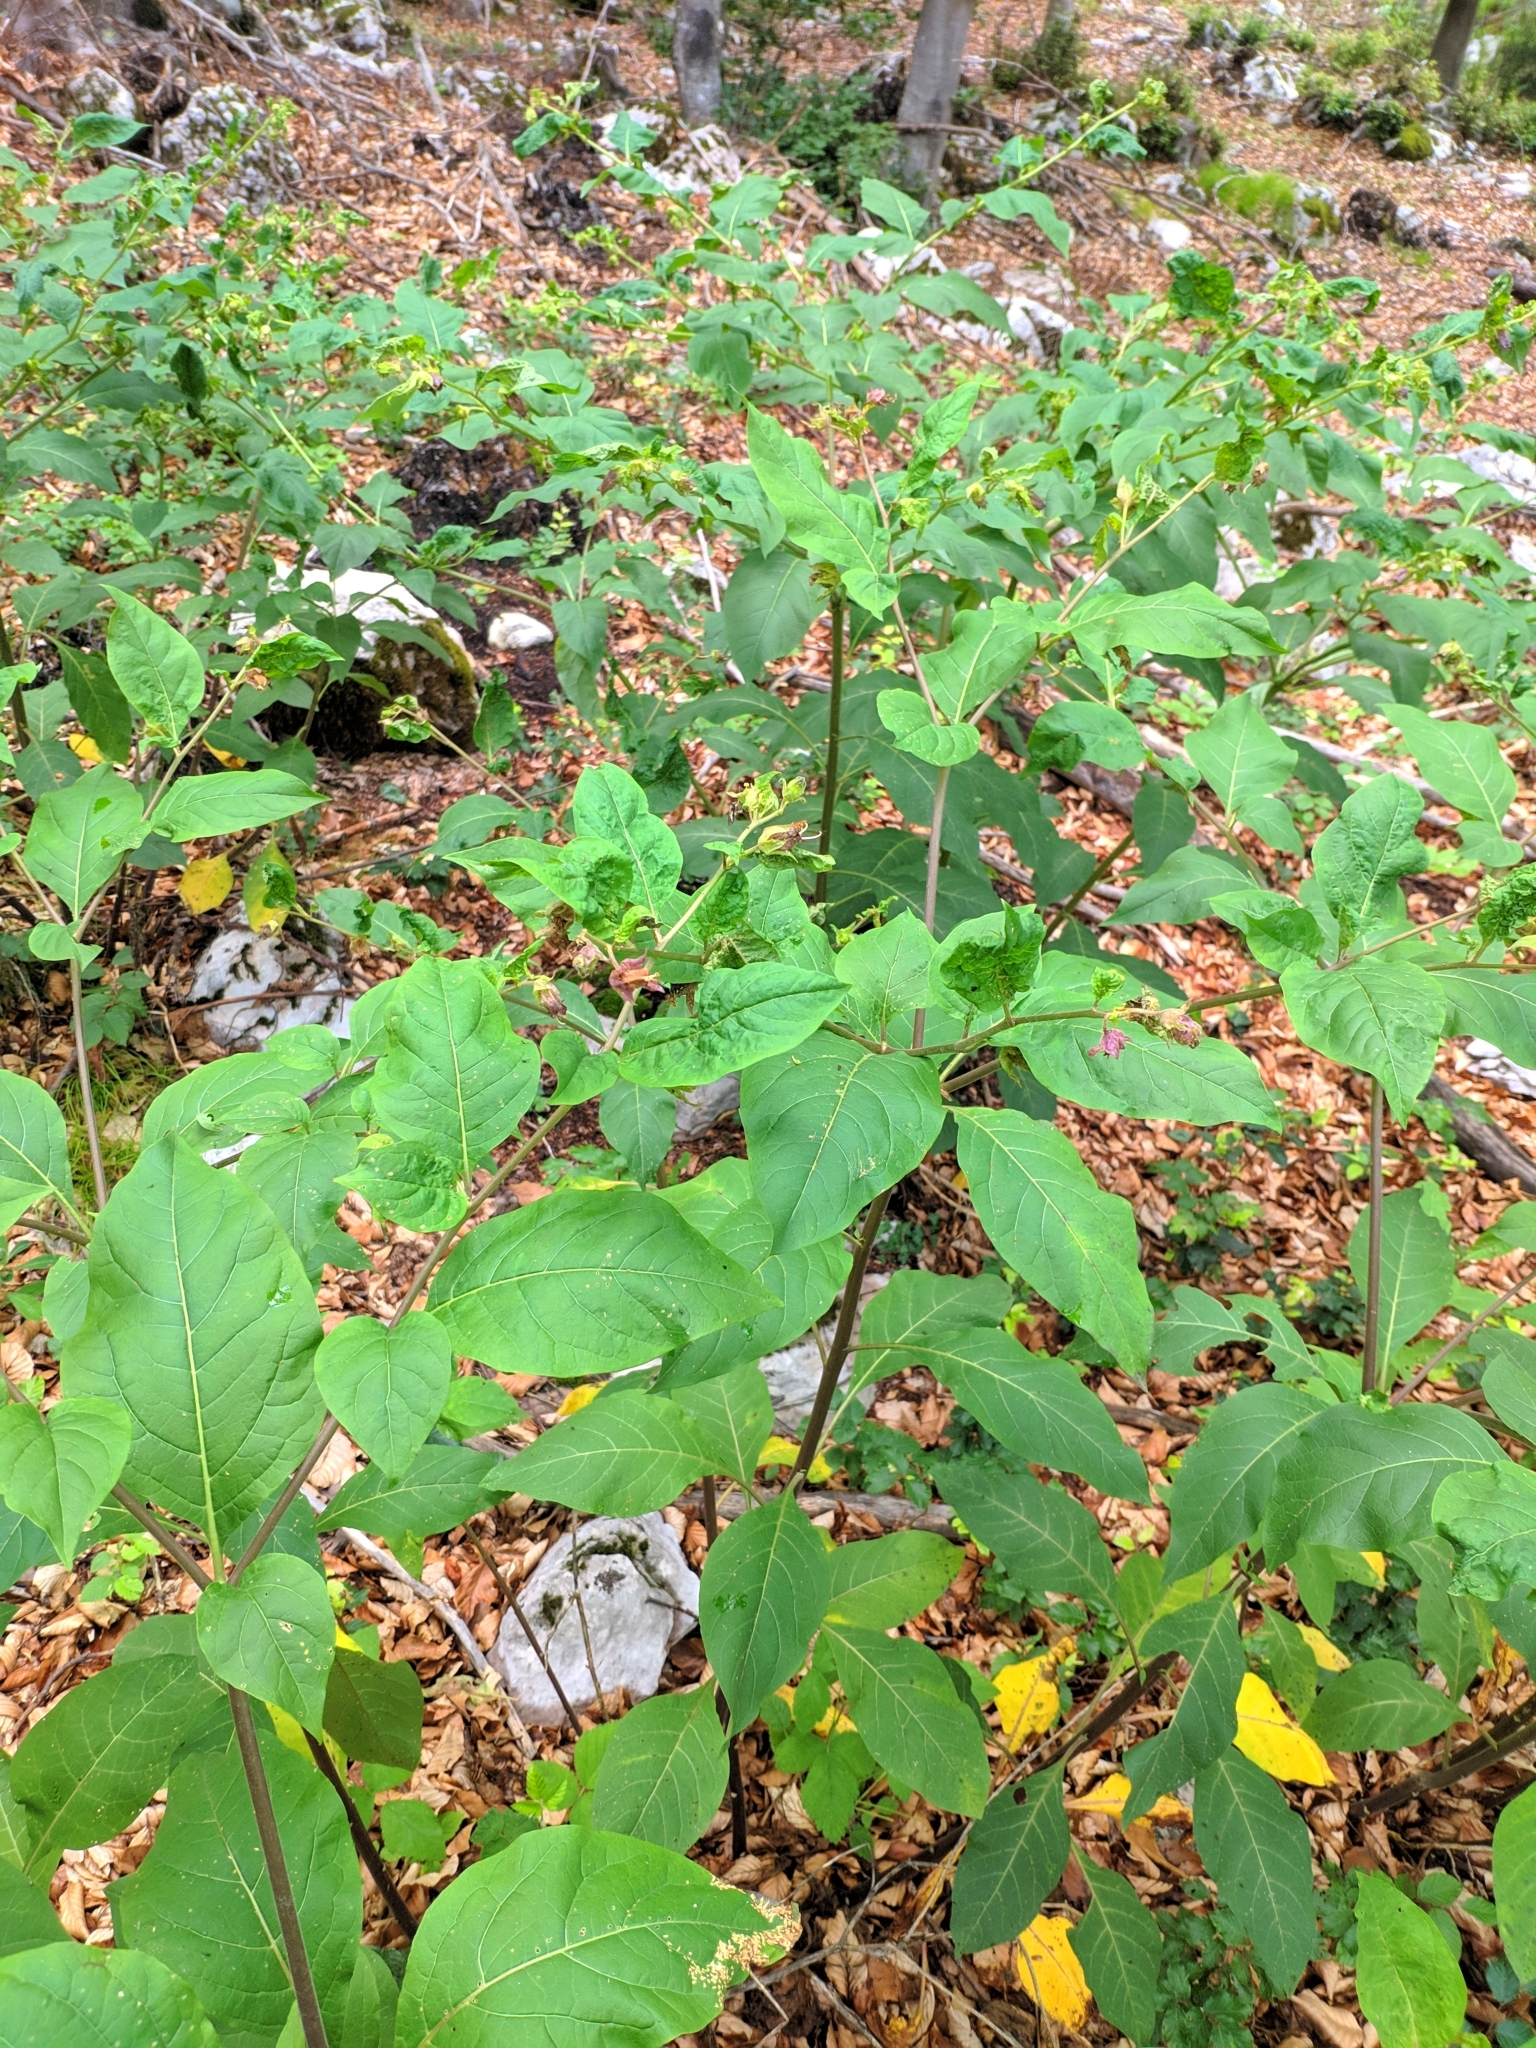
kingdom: Plantae
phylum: Tracheophyta
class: Magnoliopsida
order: Solanales
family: Solanaceae
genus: Atropa
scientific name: Atropa belladonna
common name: Deadly nightshade
